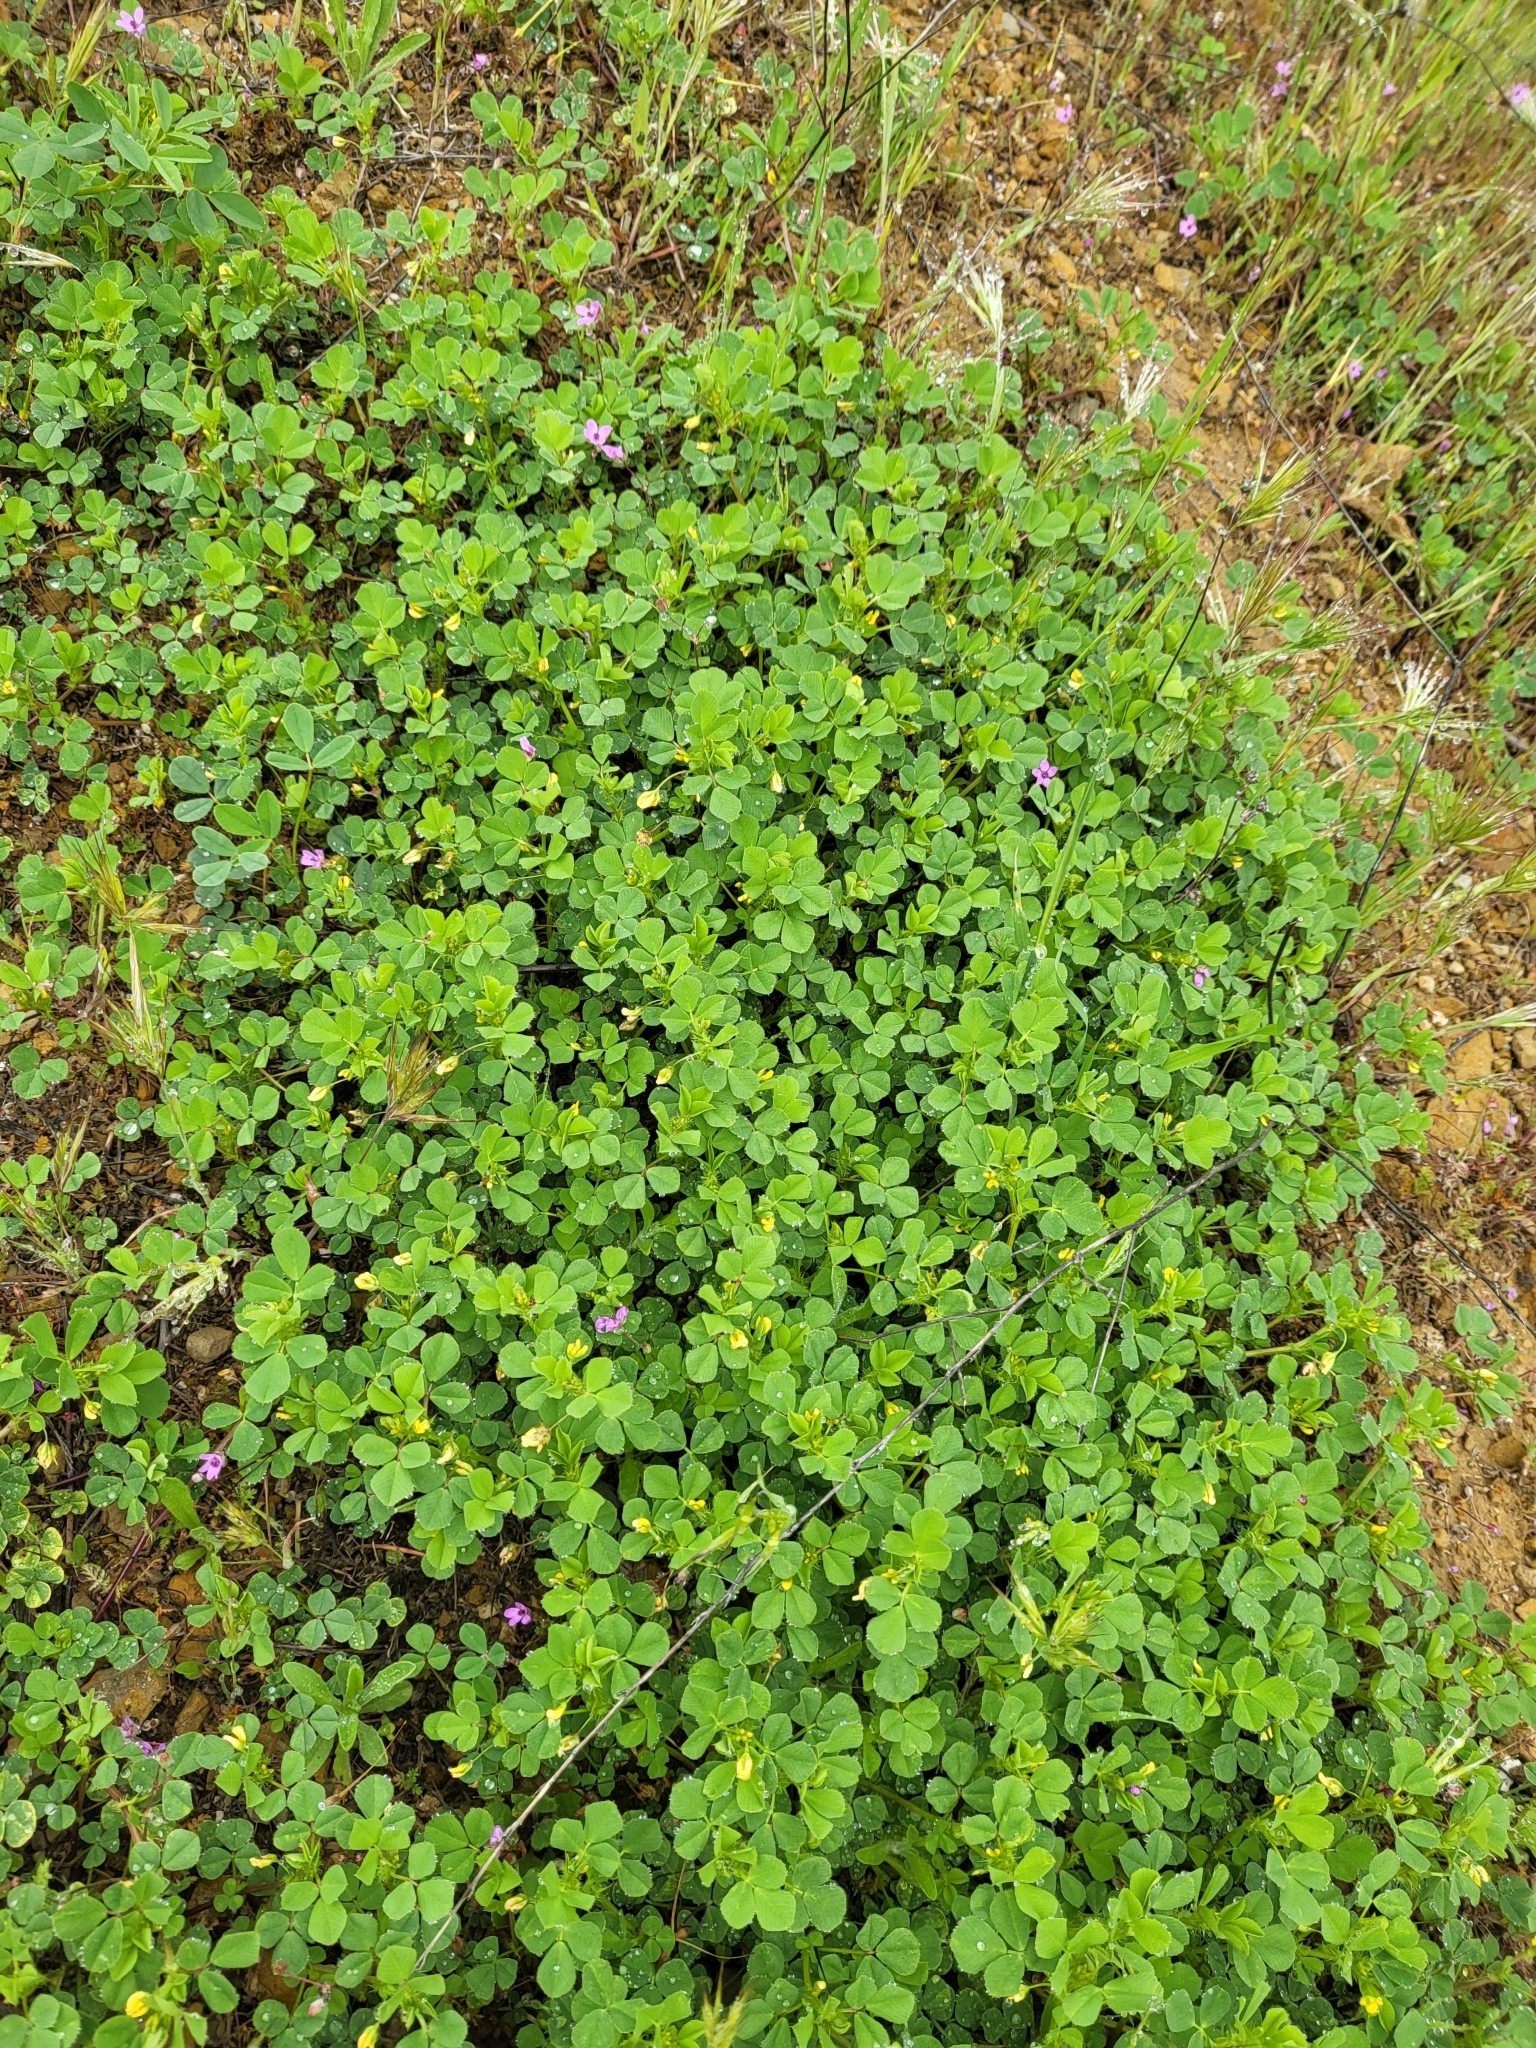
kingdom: Plantae
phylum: Tracheophyta
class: Magnoliopsida
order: Fabales
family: Fabaceae
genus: Medicago
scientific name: Medicago polymorpha
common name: Burclover
